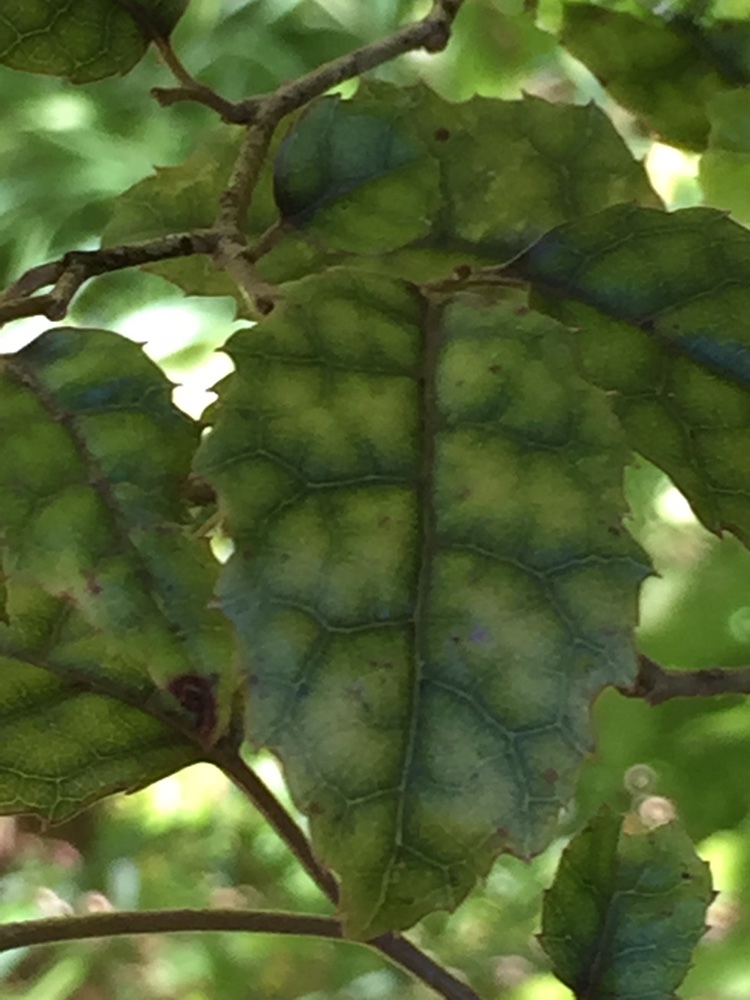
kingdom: Plantae
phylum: Tracheophyta
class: Magnoliopsida
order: Asterales
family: Rousseaceae
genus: Carpodetus
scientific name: Carpodetus serratus
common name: White mapau
